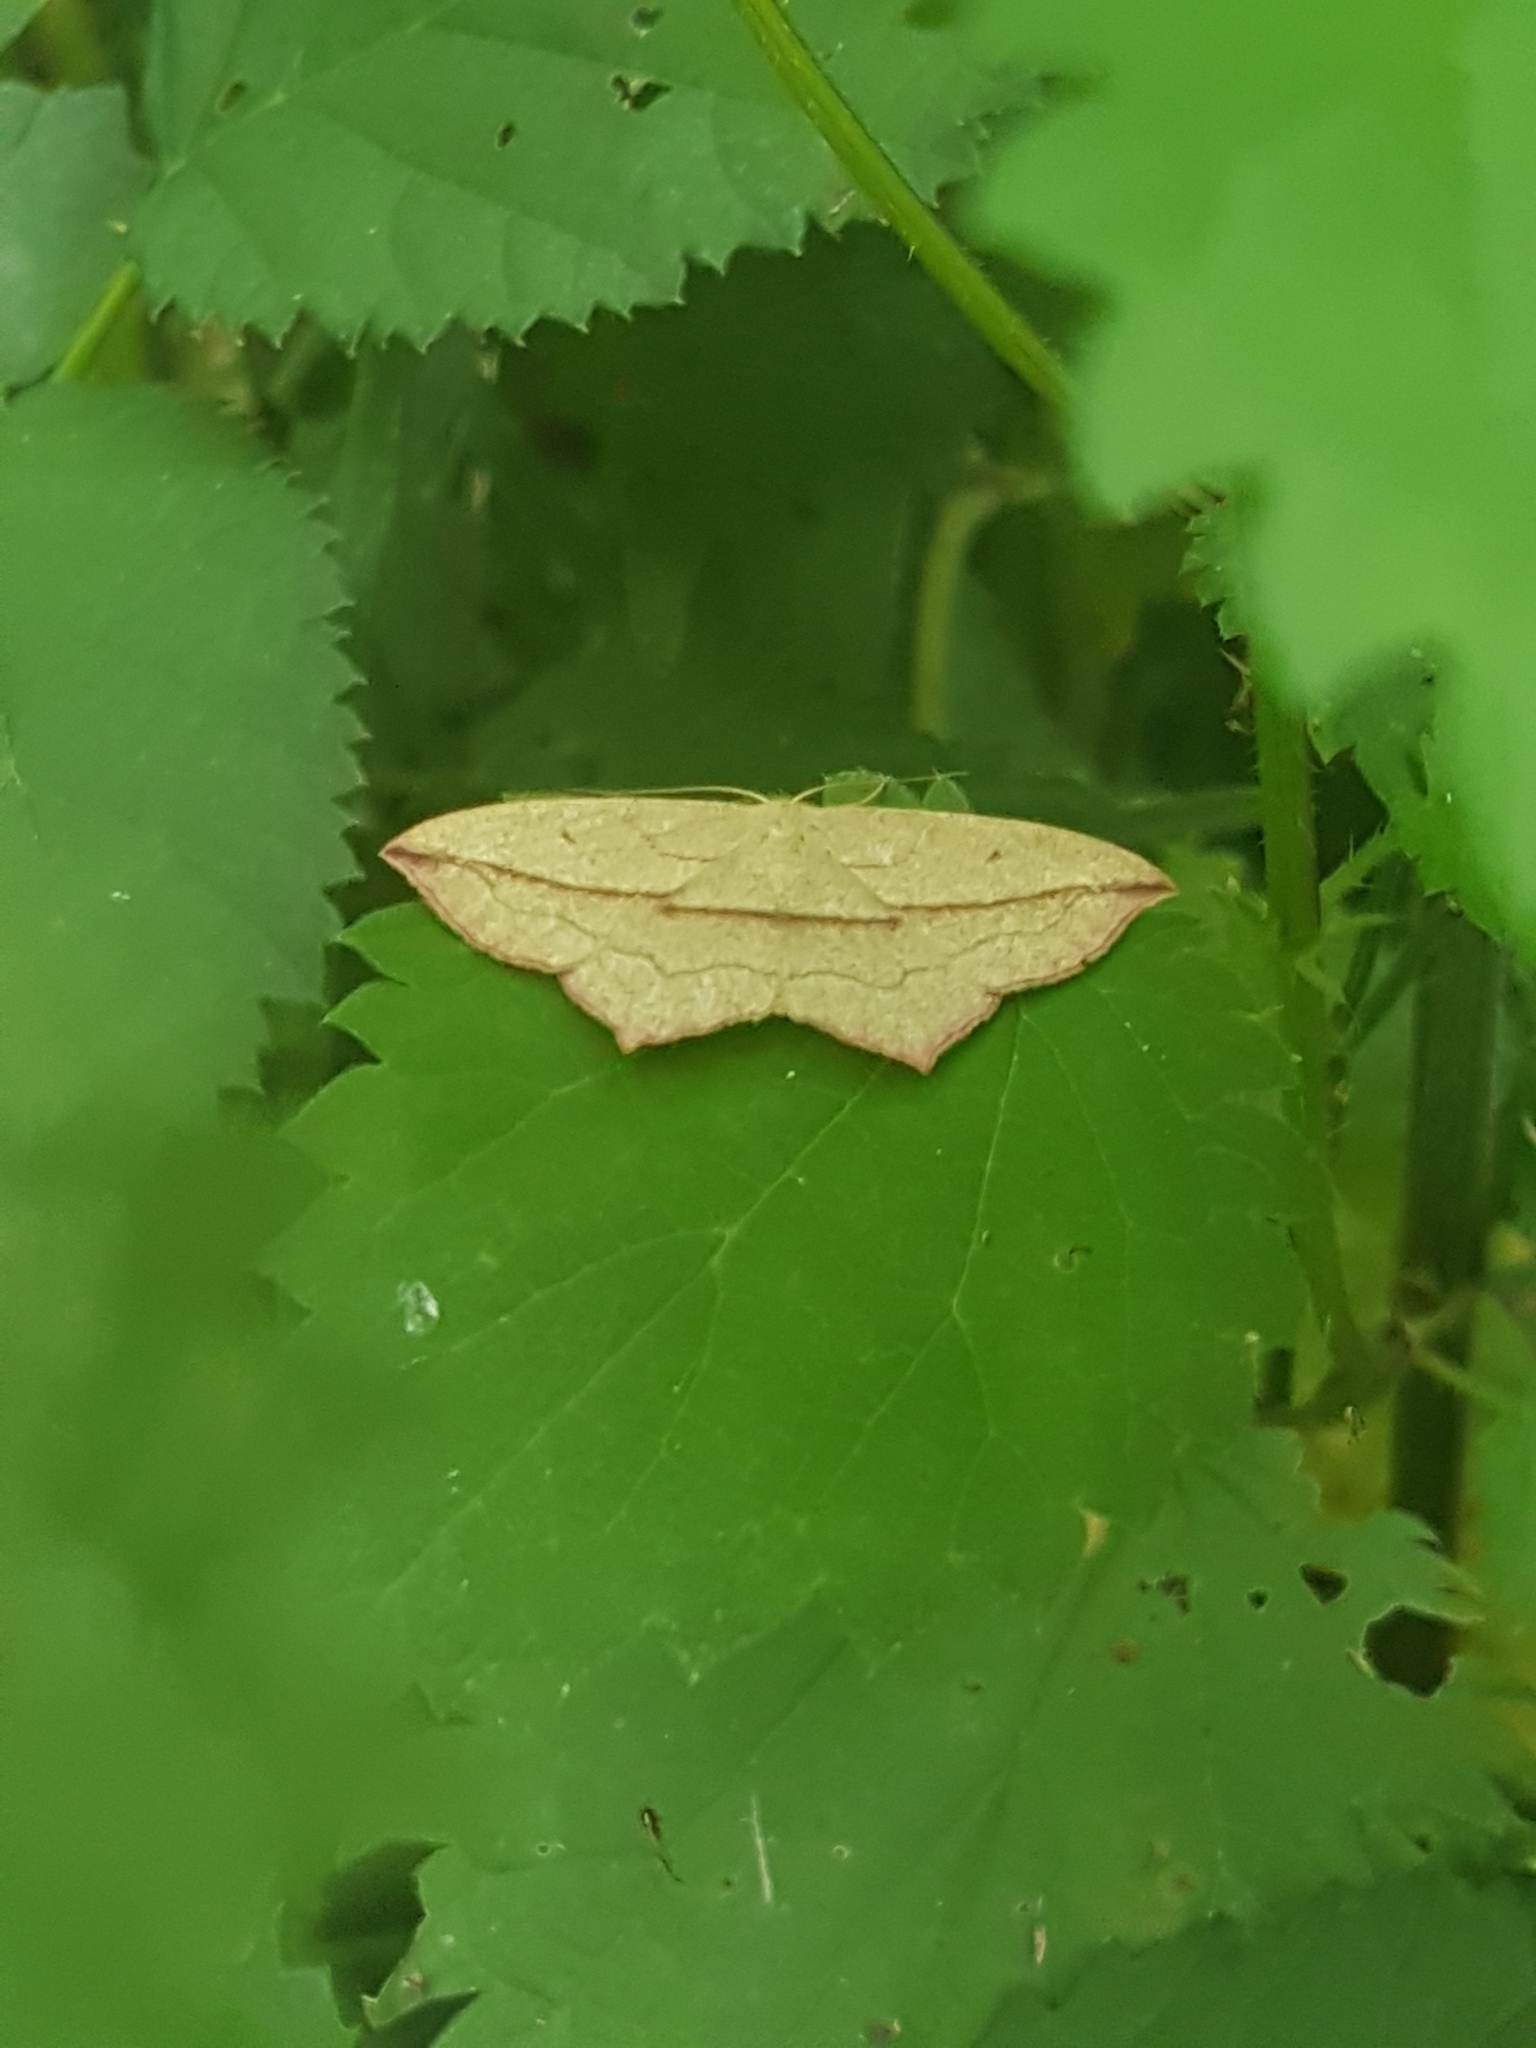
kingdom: Animalia
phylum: Arthropoda
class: Insecta
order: Lepidoptera
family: Geometridae
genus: Timandra
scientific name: Timandra comae
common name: Blood-vein
